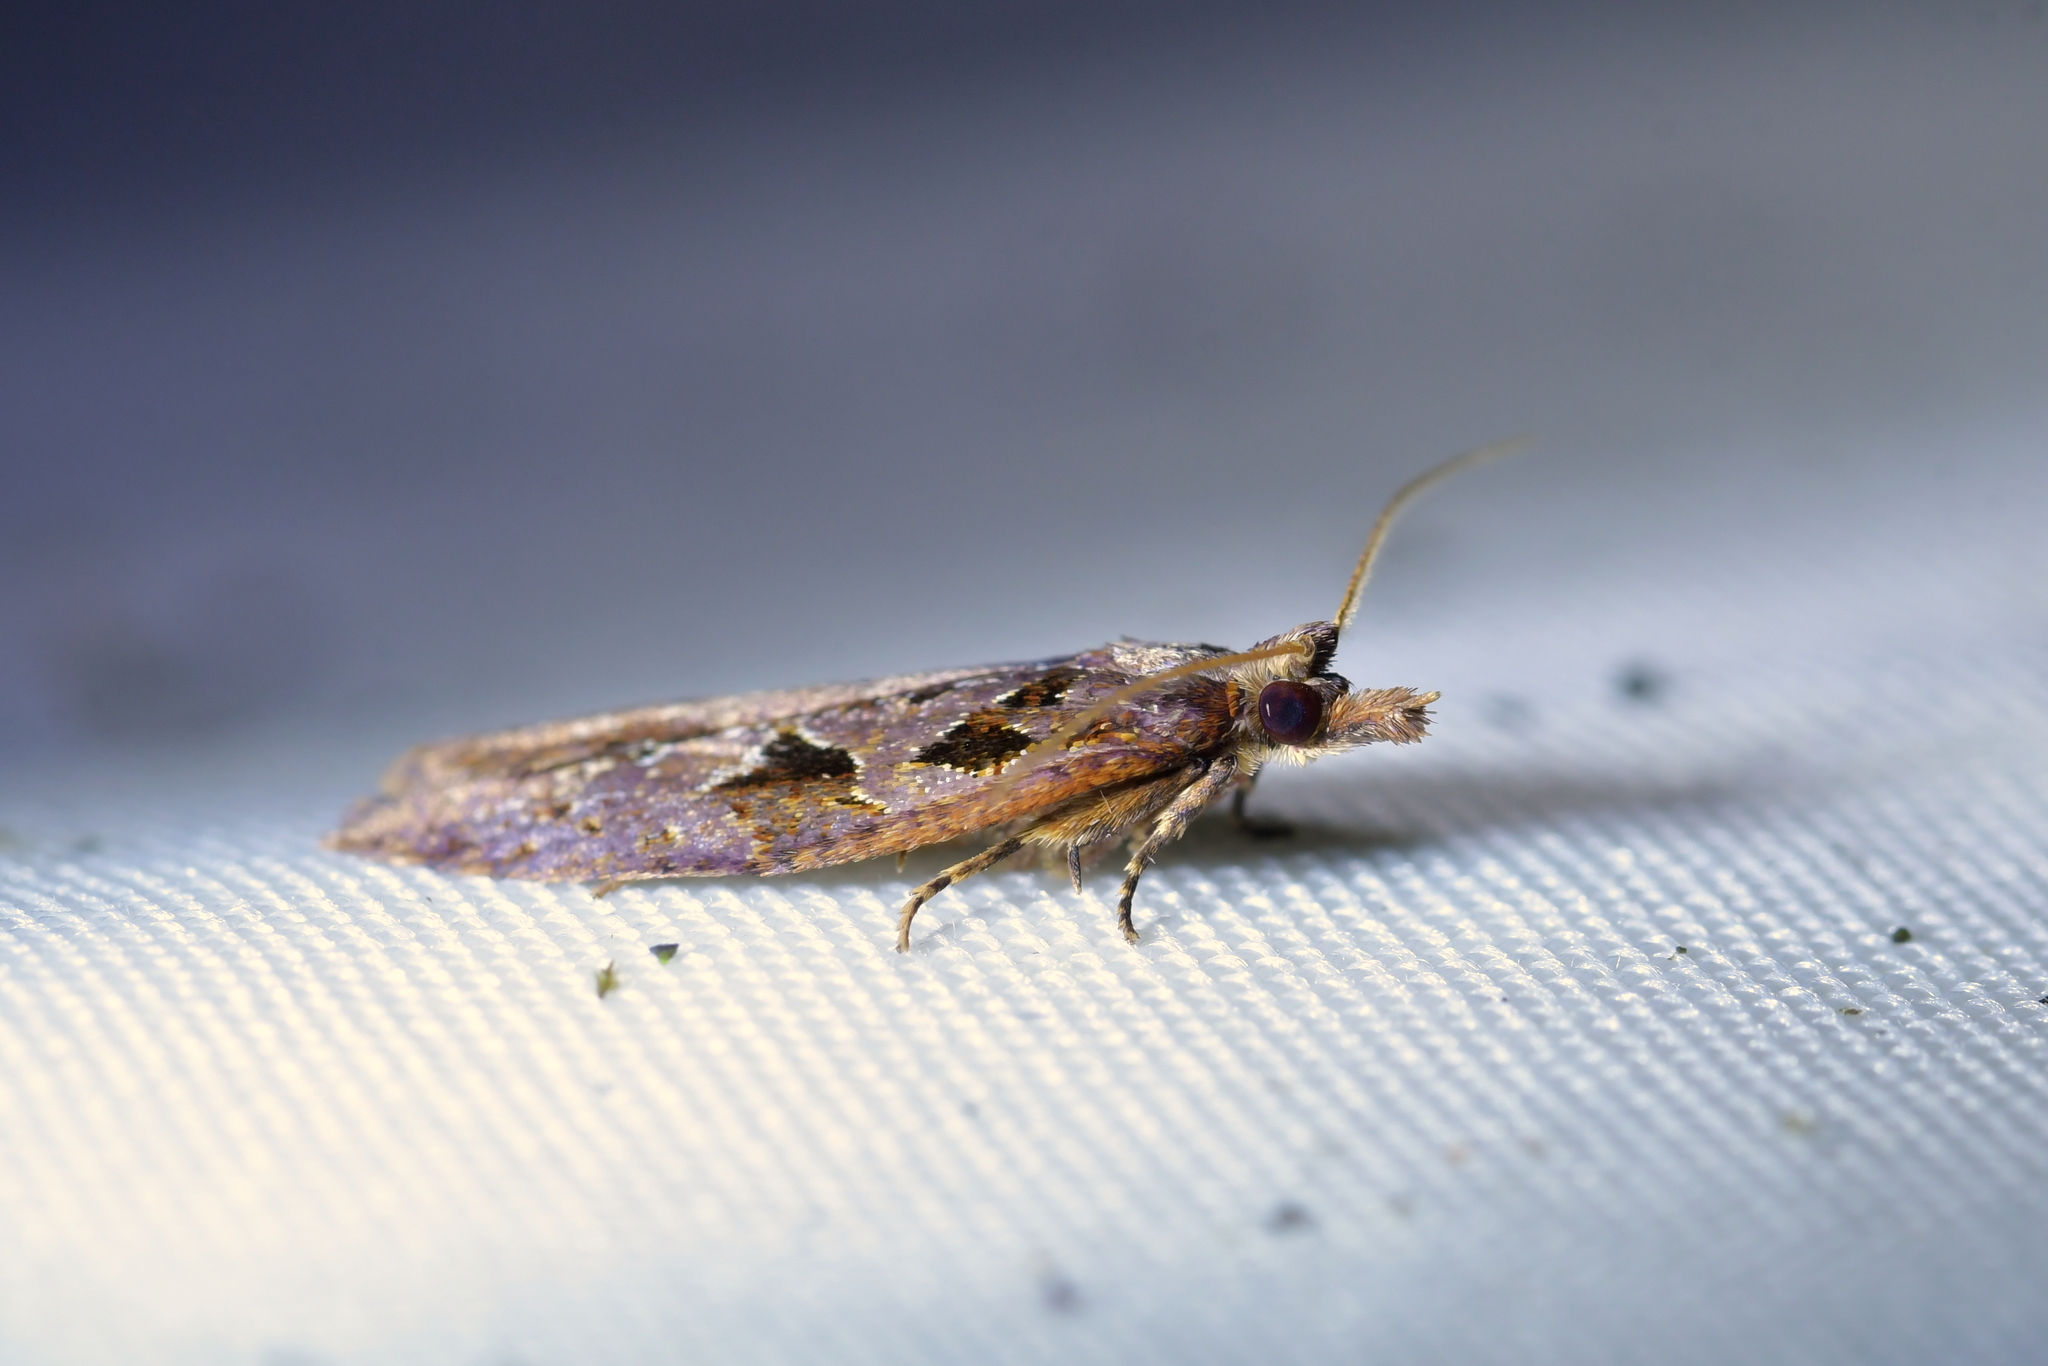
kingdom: Animalia
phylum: Arthropoda
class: Insecta
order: Lepidoptera
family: Tortricidae
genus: Ctenopseustis
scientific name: Ctenopseustis fraterna
